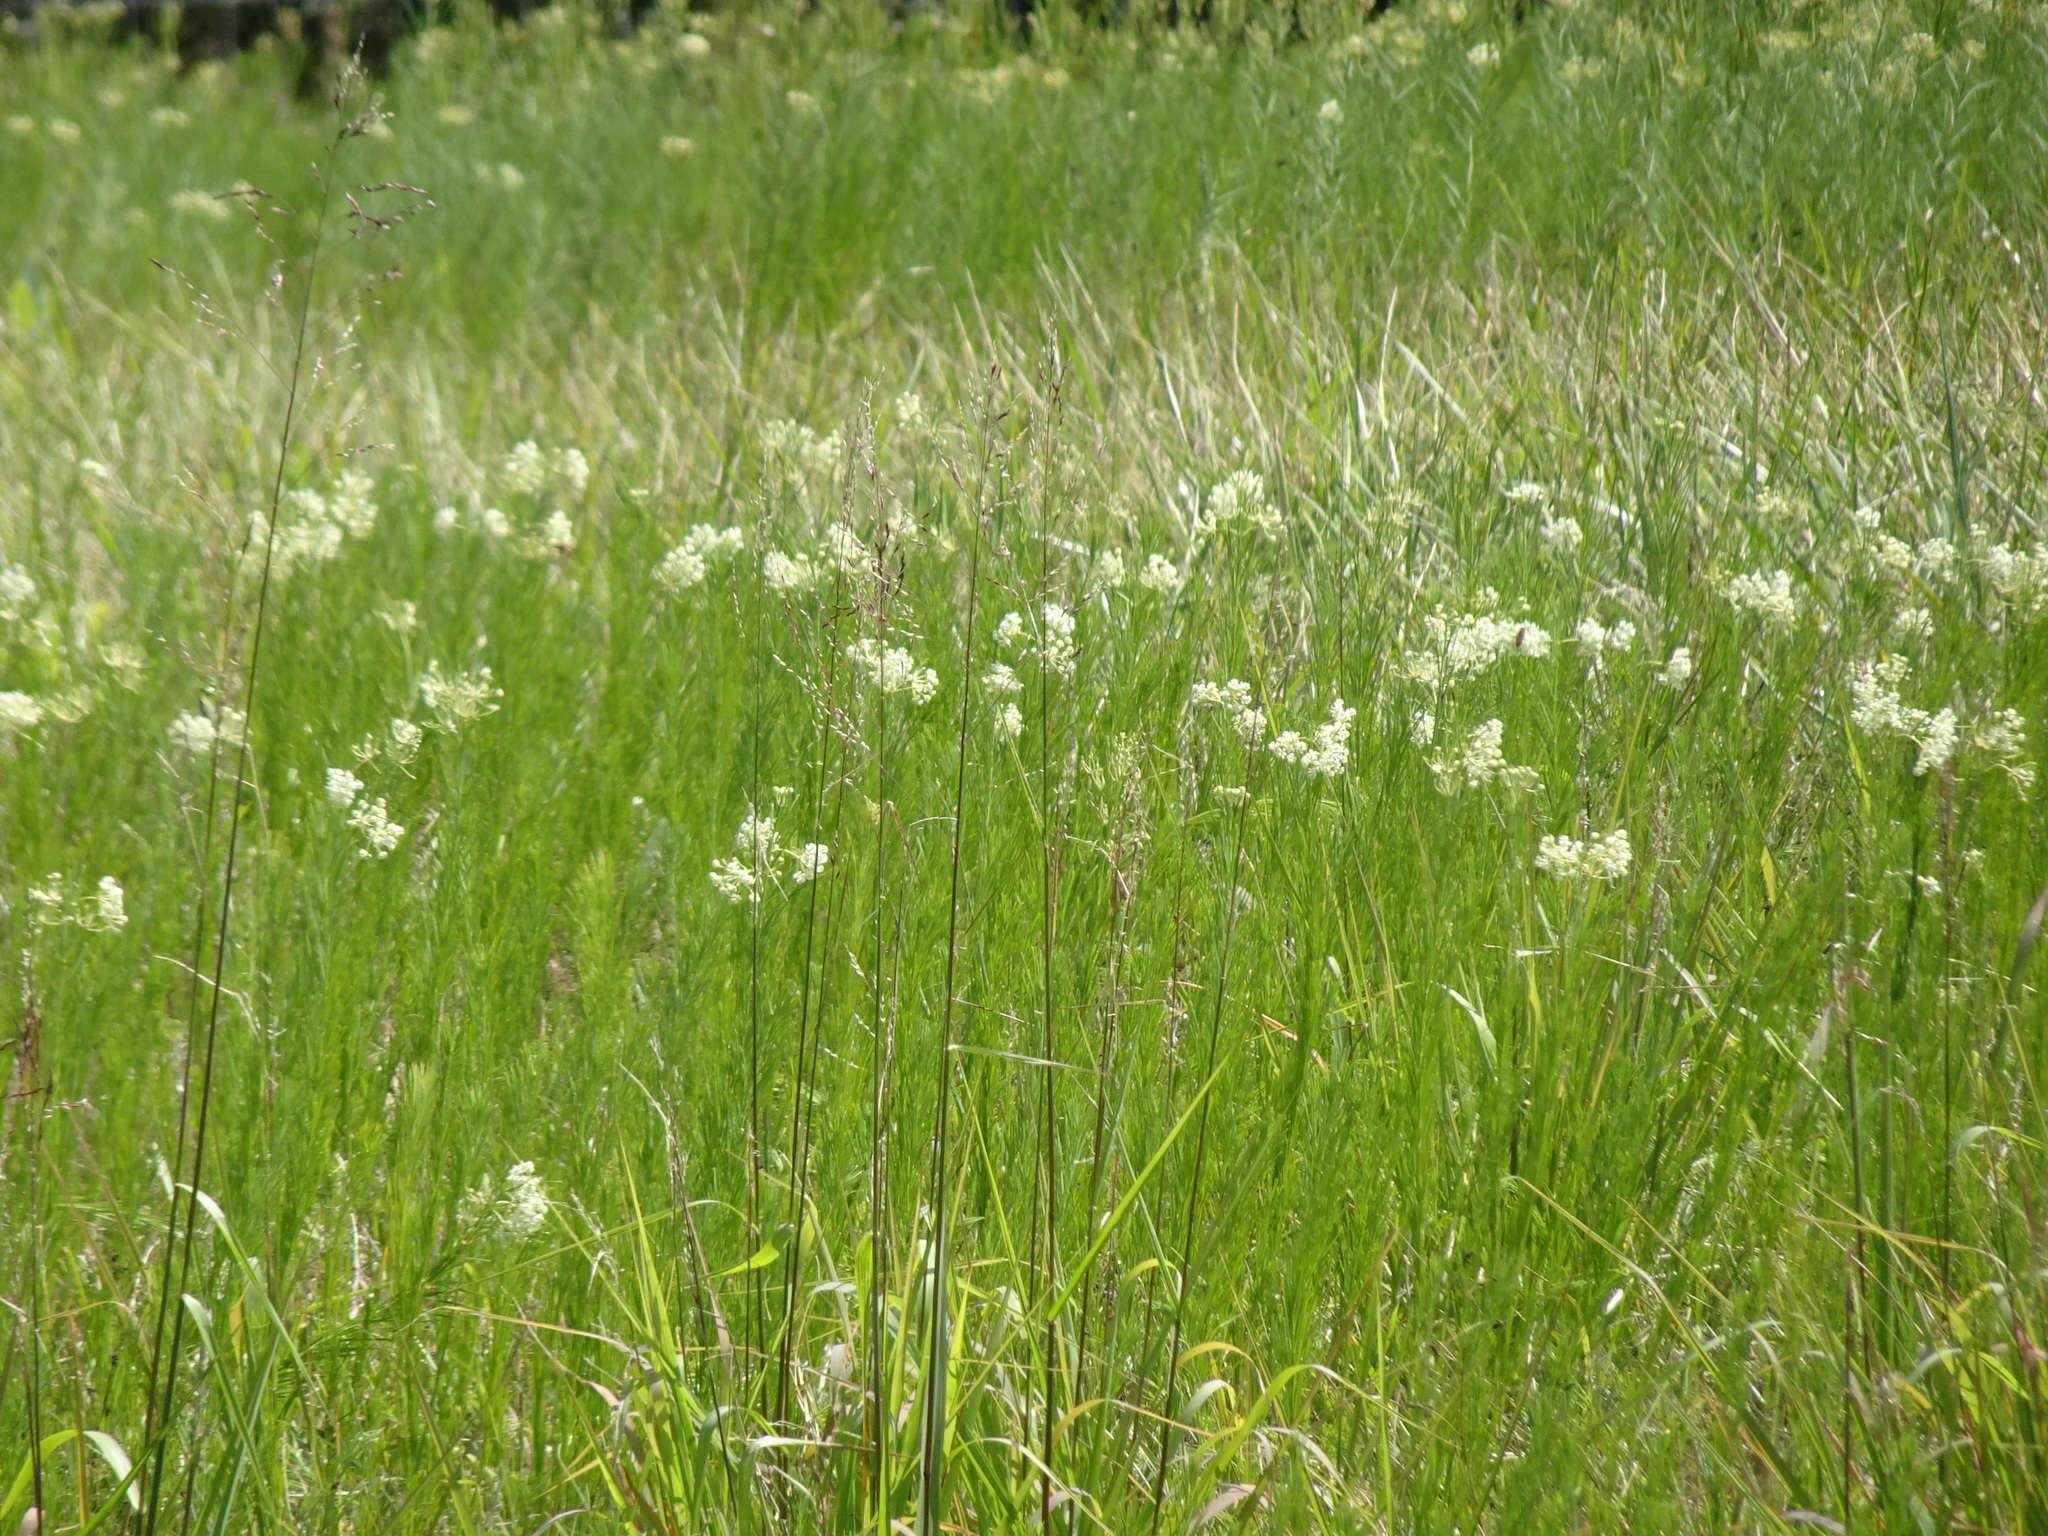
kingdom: Plantae
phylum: Tracheophyta
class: Magnoliopsida
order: Gentianales
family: Apocynaceae
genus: Asclepias
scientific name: Asclepias verticillata
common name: Eastern whorled milkweed
